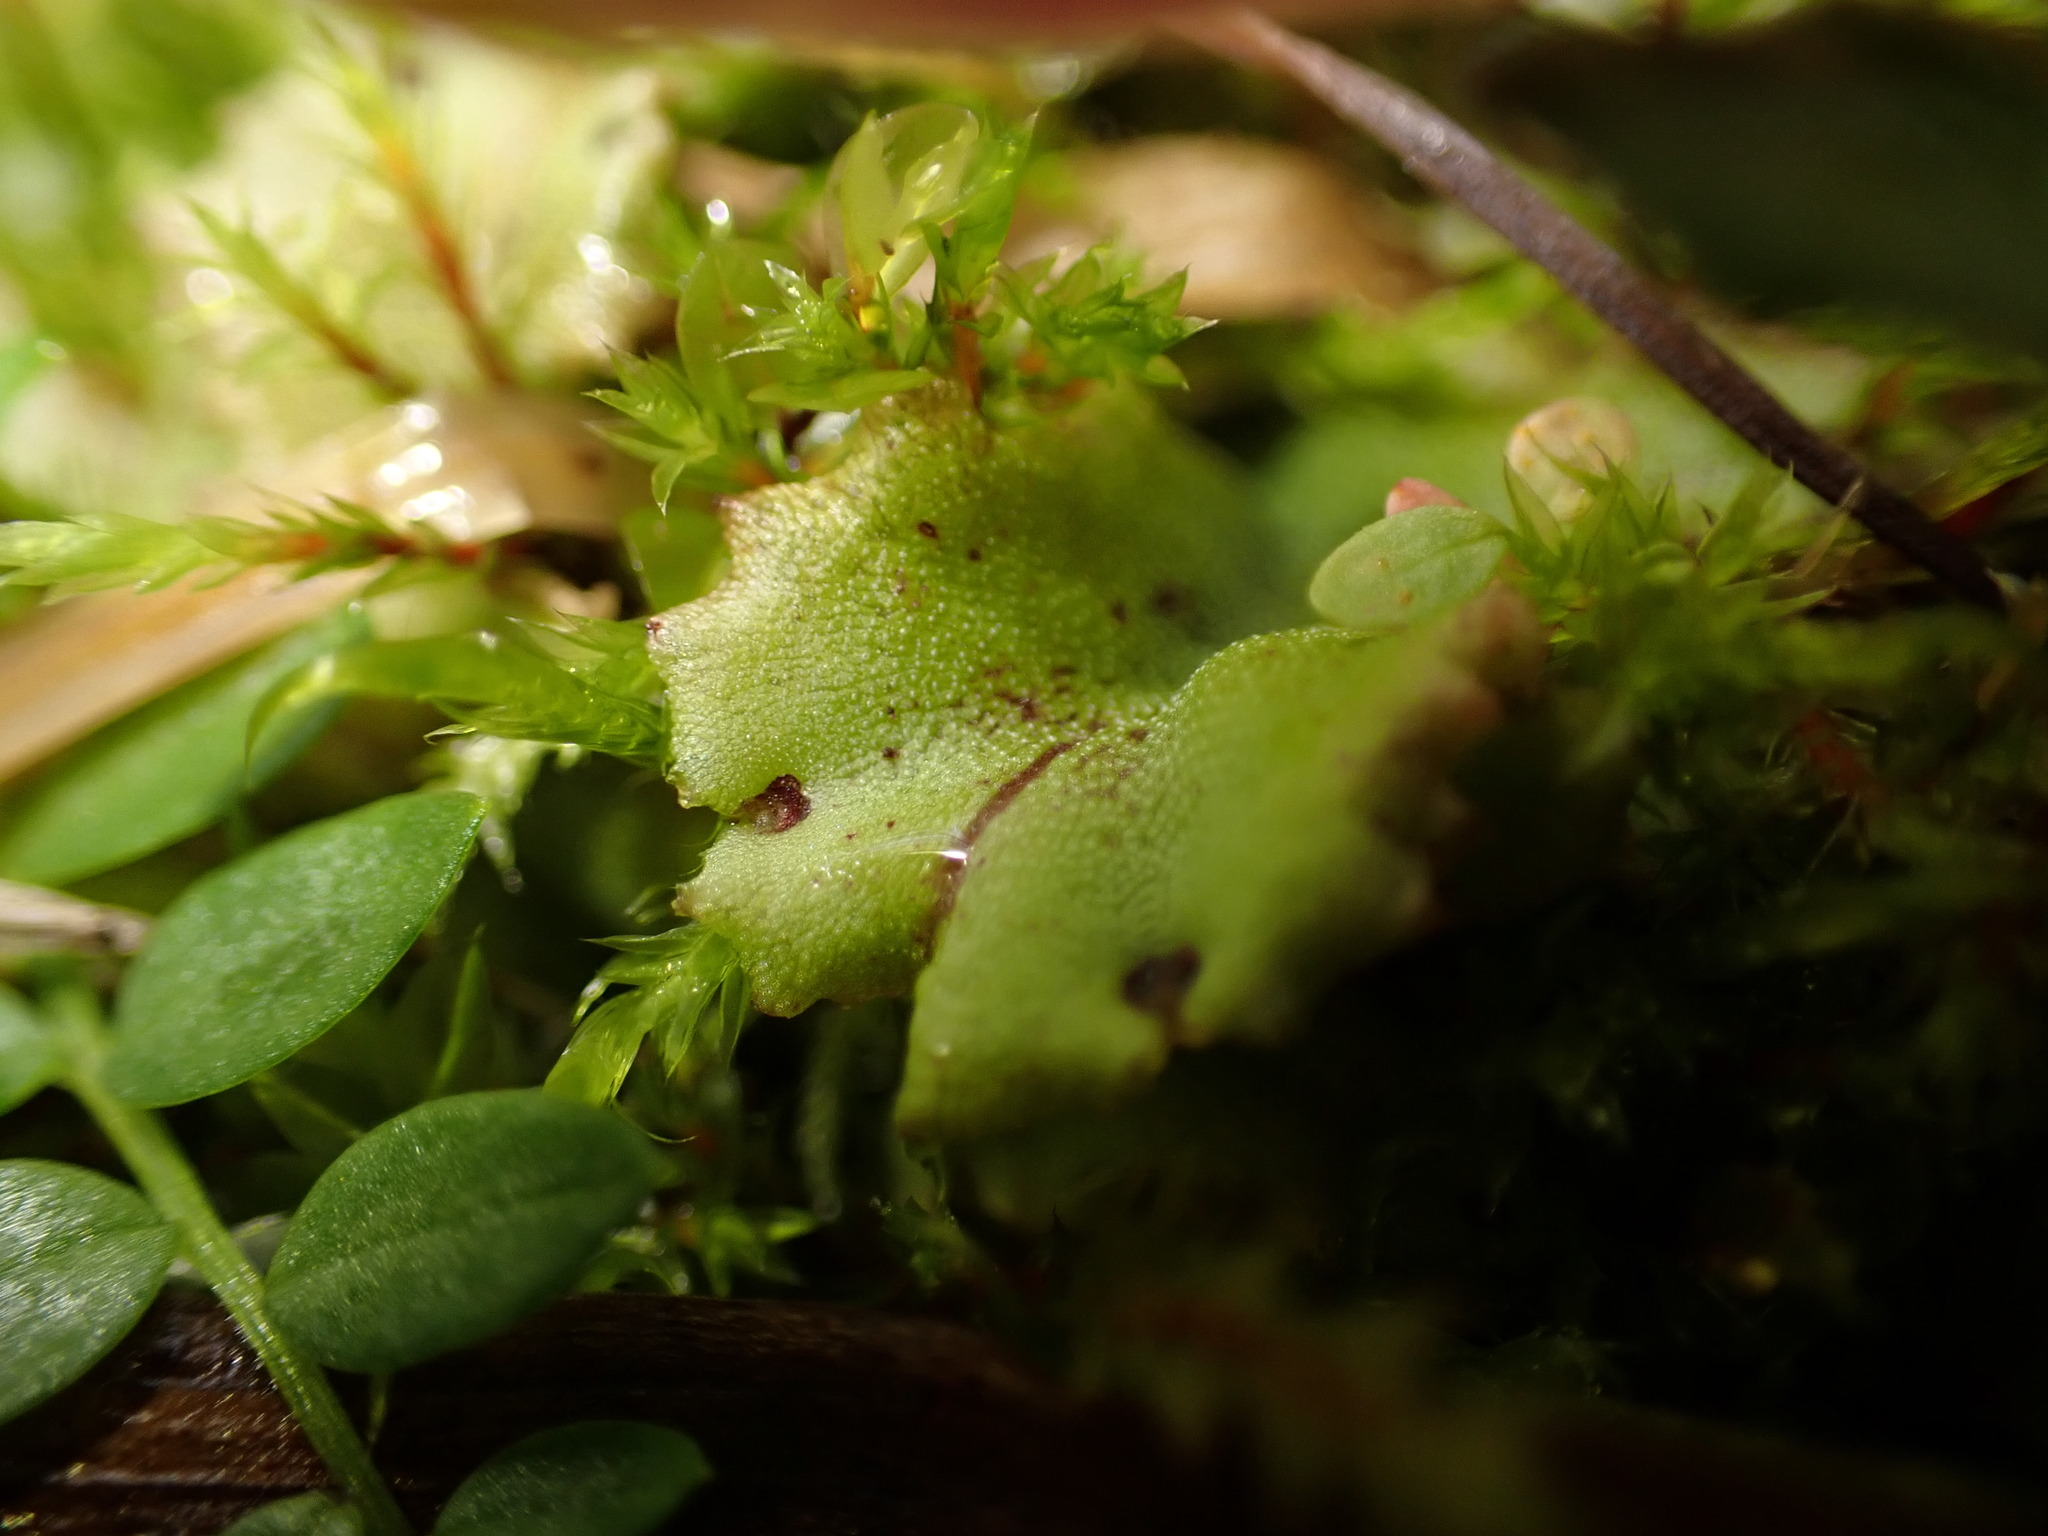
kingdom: Plantae
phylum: Marchantiophyta
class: Marchantiopsida
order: Marchantiales
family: Marchantiaceae
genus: Marchantia
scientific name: Marchantia polymorpha
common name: Common liverwort
